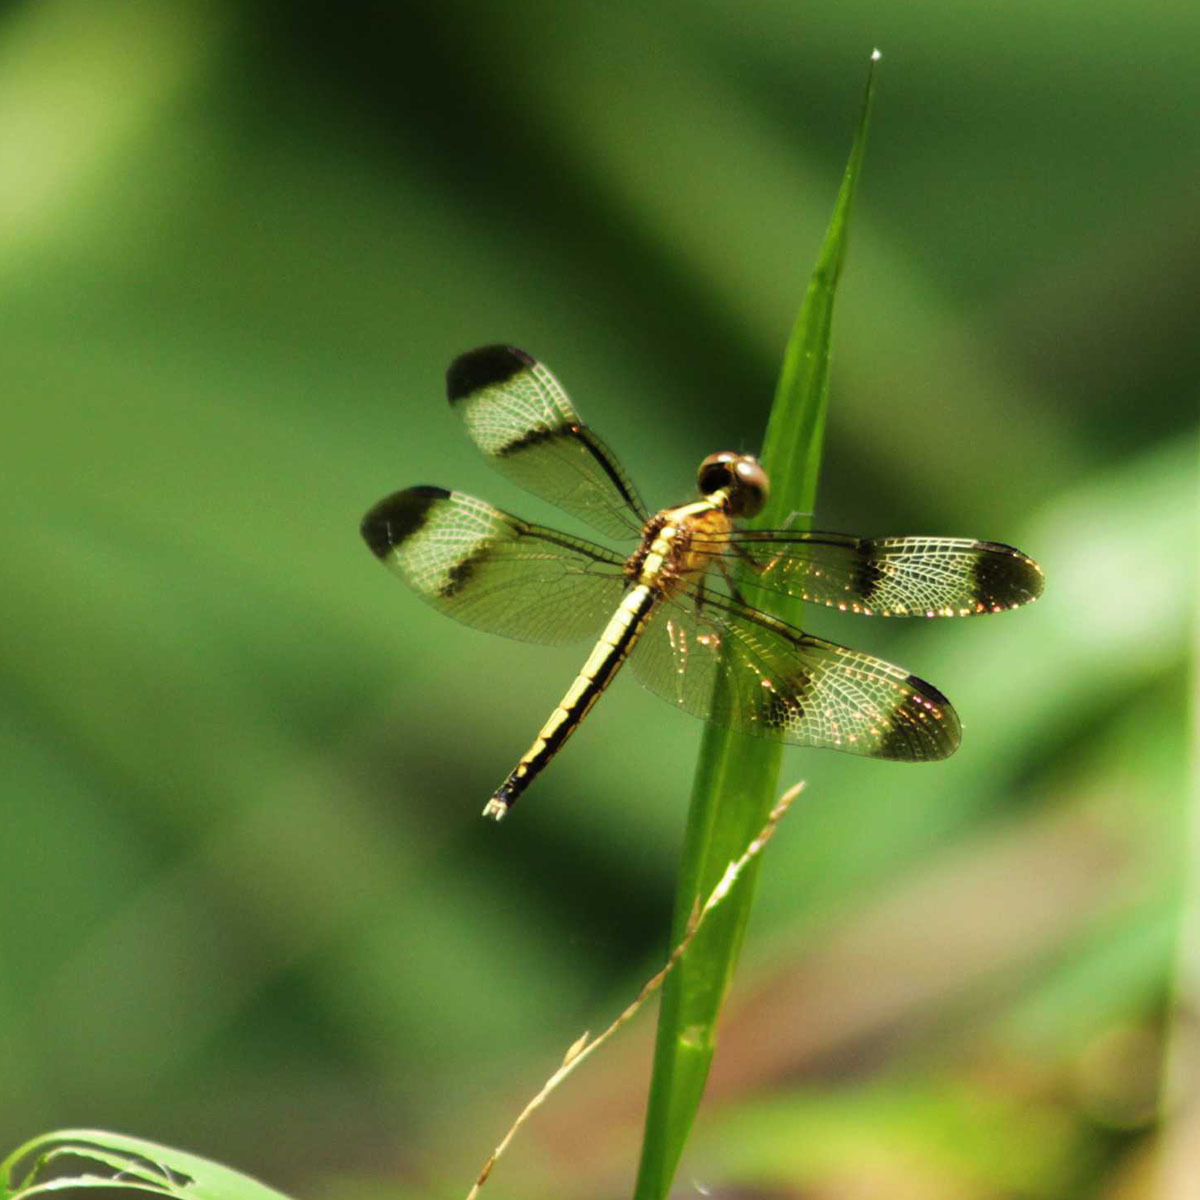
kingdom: Animalia
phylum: Arthropoda
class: Insecta
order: Odonata
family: Libellulidae
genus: Neurothemis
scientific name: Neurothemis tullia
